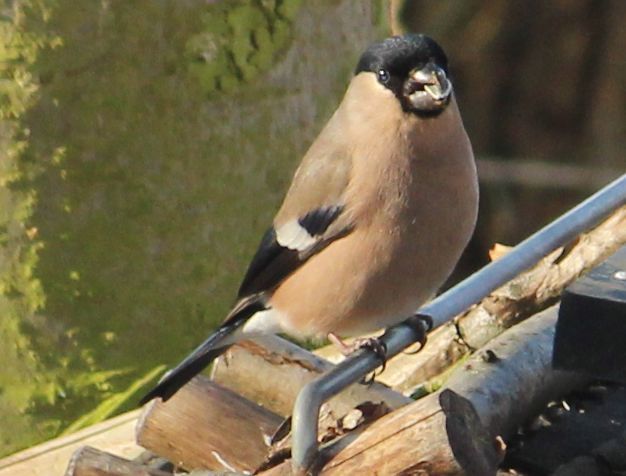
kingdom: Animalia
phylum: Chordata
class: Aves
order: Passeriformes
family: Fringillidae
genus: Pyrrhula
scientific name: Pyrrhula pyrrhula
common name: Eurasian bullfinch
